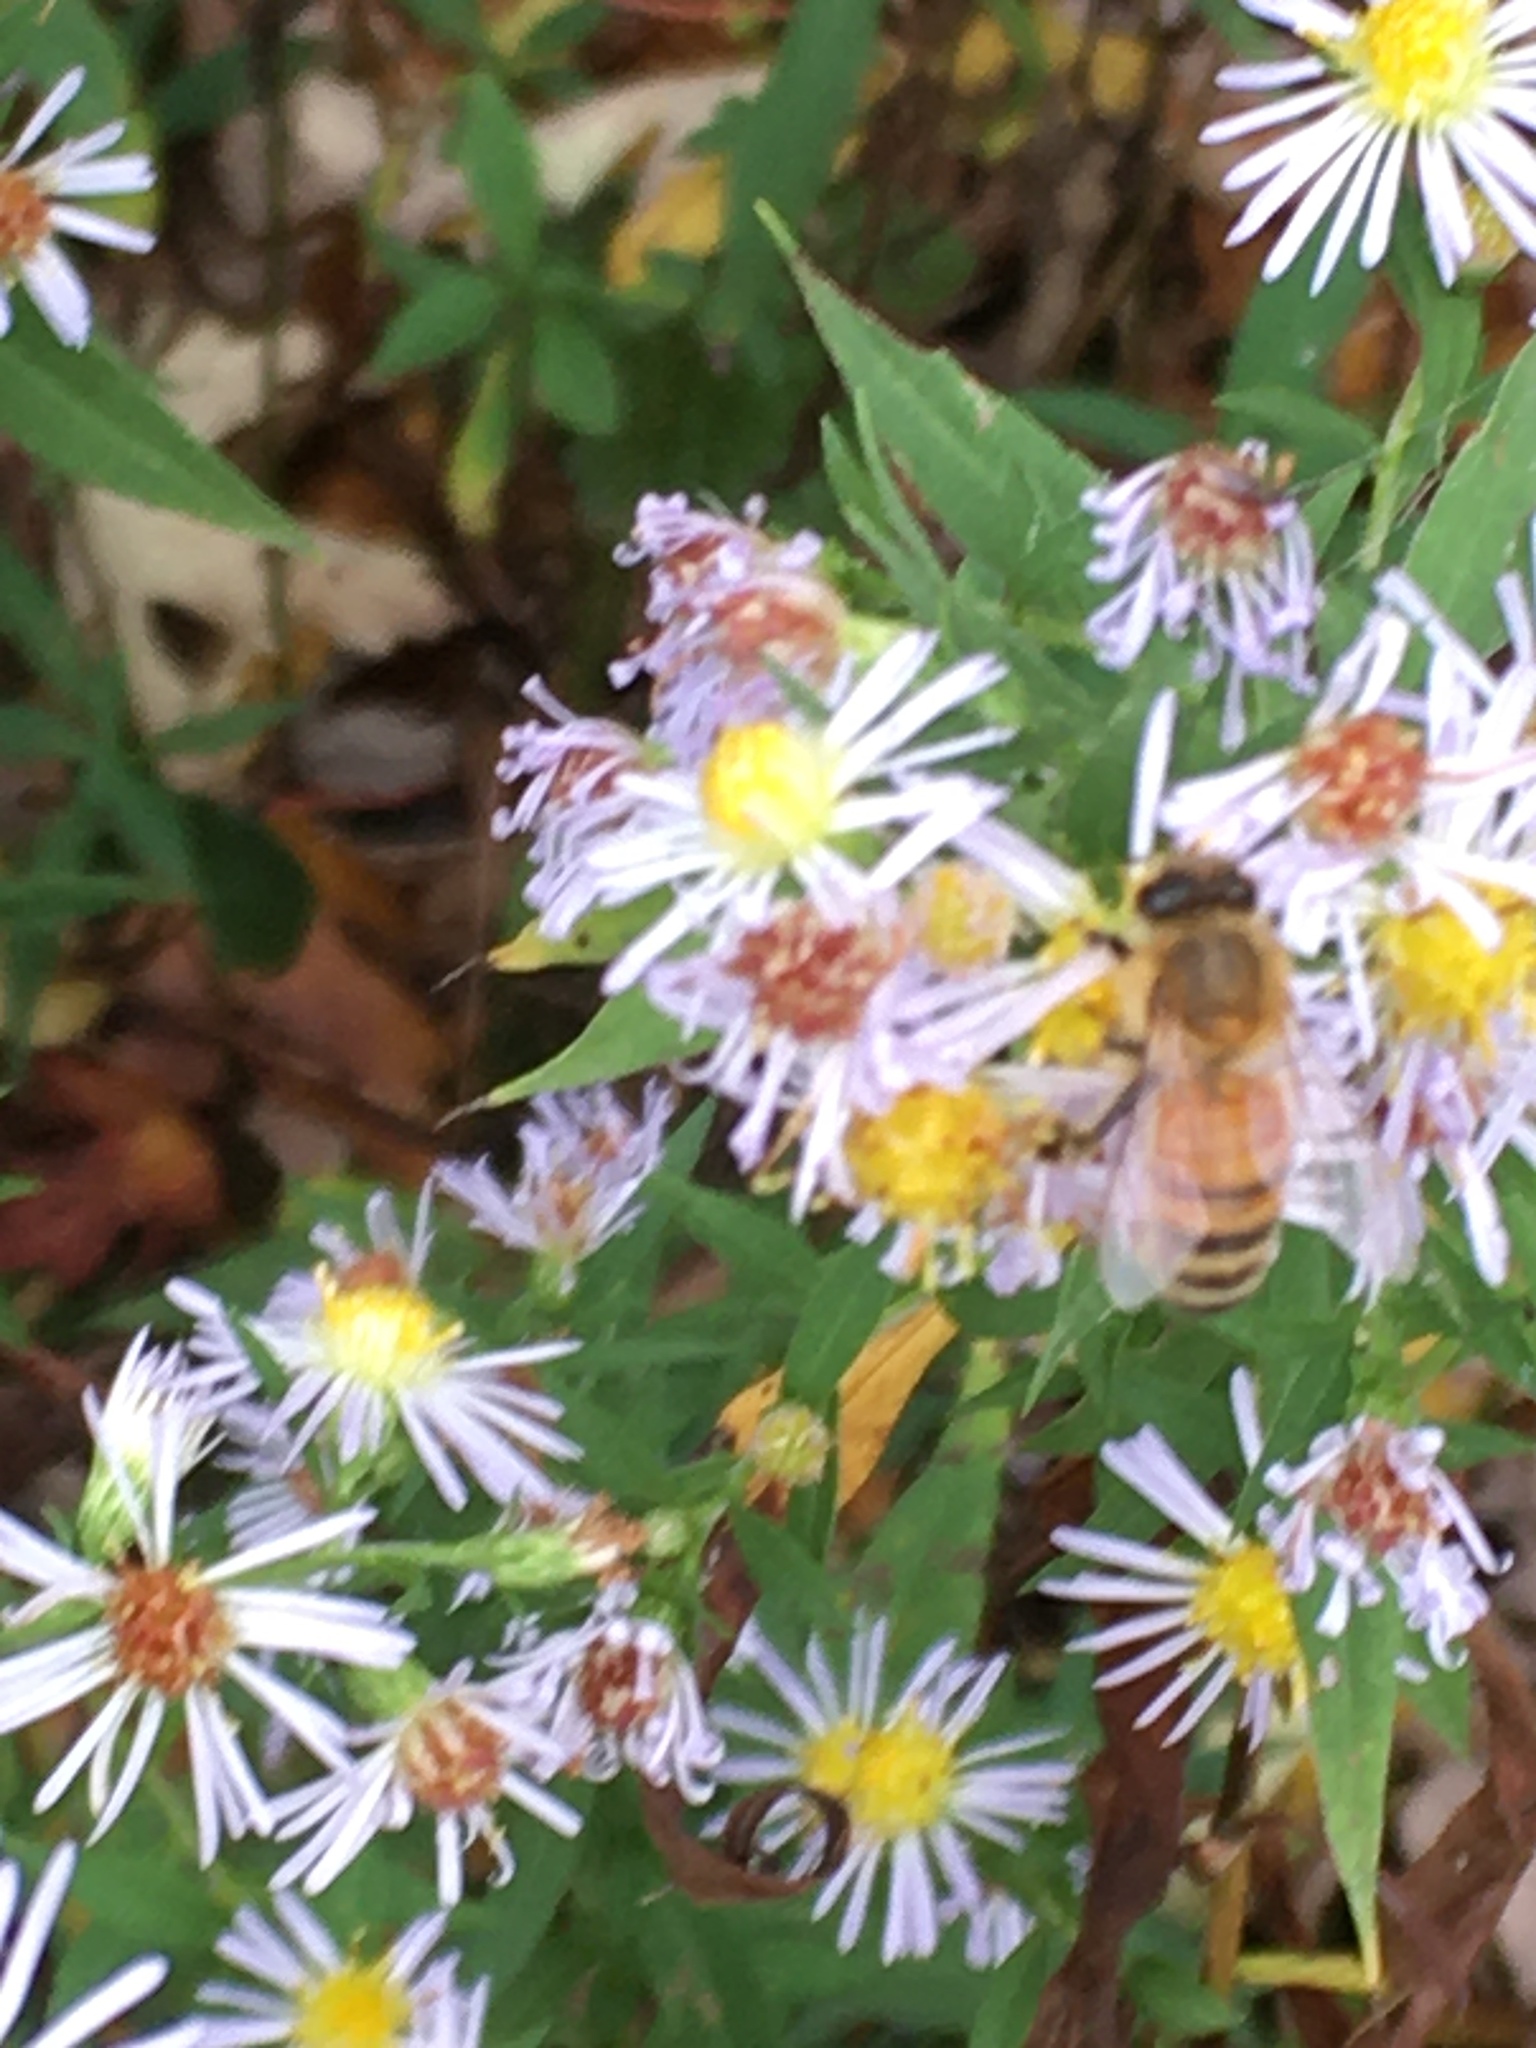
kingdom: Animalia
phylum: Arthropoda
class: Insecta
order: Hymenoptera
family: Apidae
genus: Apis
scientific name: Apis mellifera
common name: Honey bee
